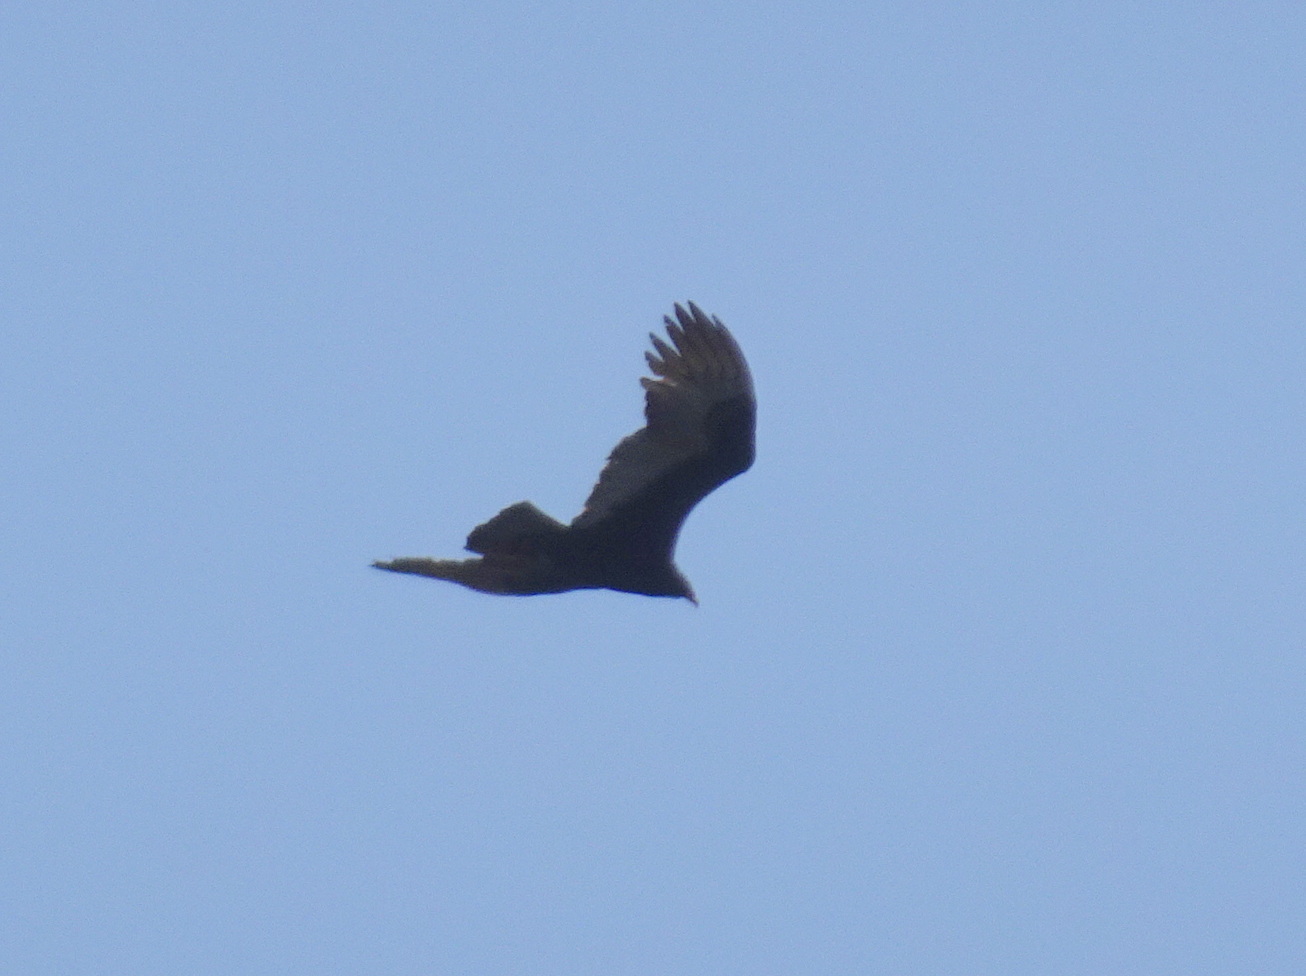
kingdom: Animalia
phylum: Chordata
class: Aves
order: Accipitriformes
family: Cathartidae
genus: Cathartes
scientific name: Cathartes aura
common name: Turkey vulture
